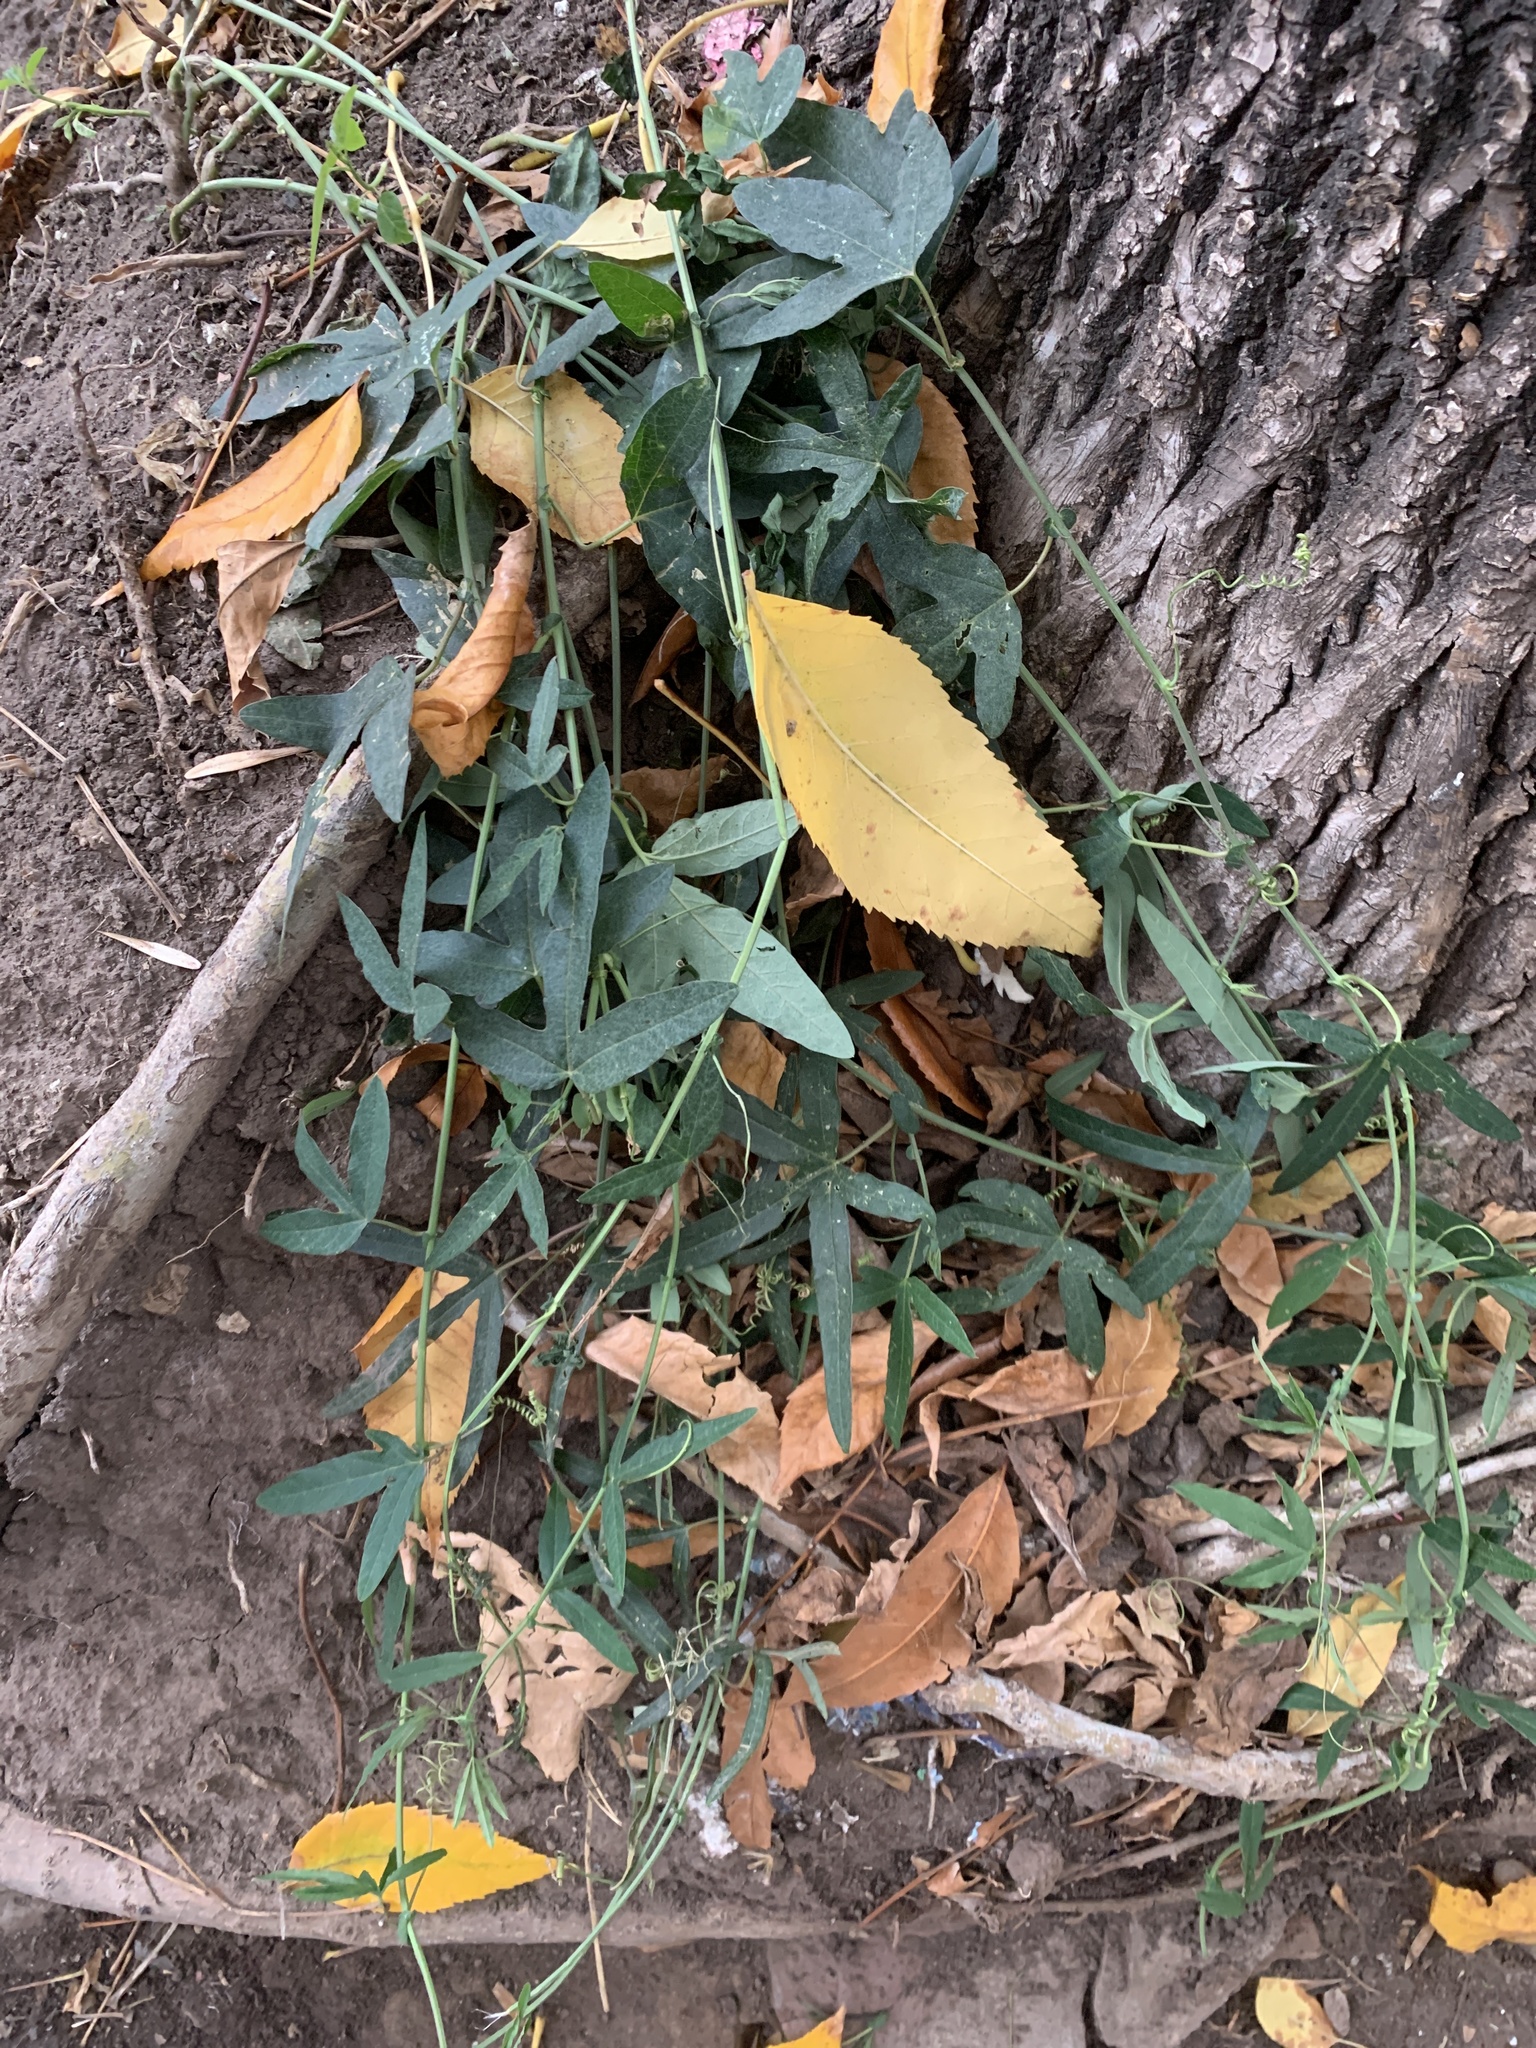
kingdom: Plantae
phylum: Tracheophyta
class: Magnoliopsida
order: Malpighiales
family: Passifloraceae
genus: Passiflora
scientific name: Passiflora caerulea
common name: Blue passionflower
